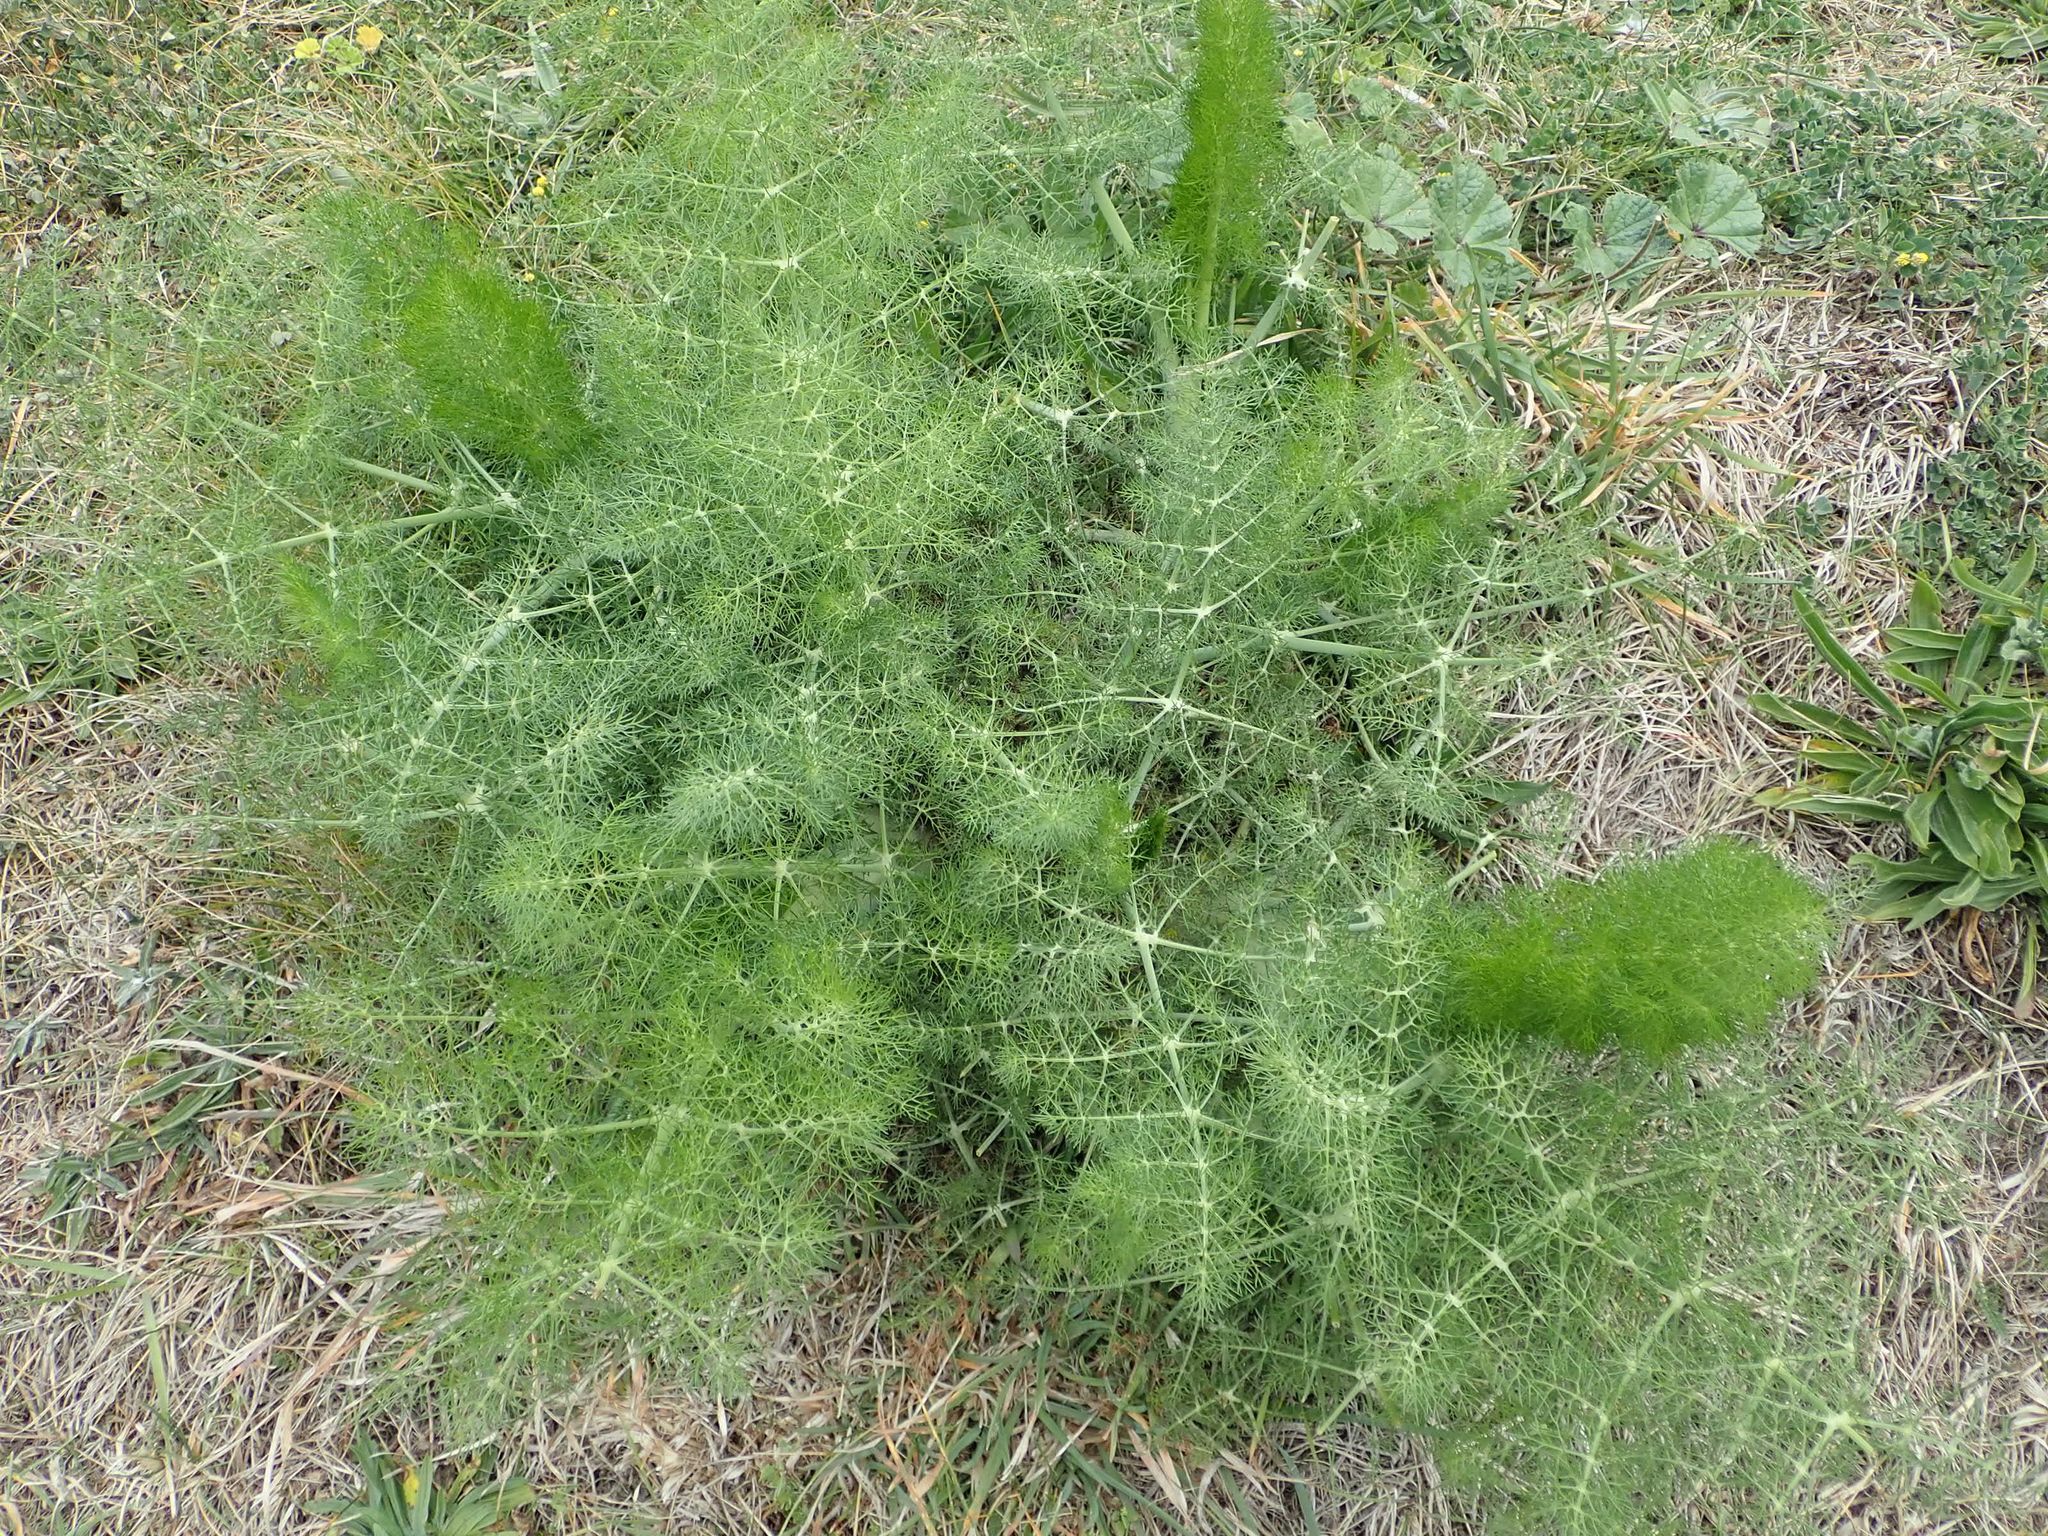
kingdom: Plantae
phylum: Tracheophyta
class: Magnoliopsida
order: Apiales
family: Apiaceae
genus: Foeniculum
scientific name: Foeniculum vulgare
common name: Fennel
